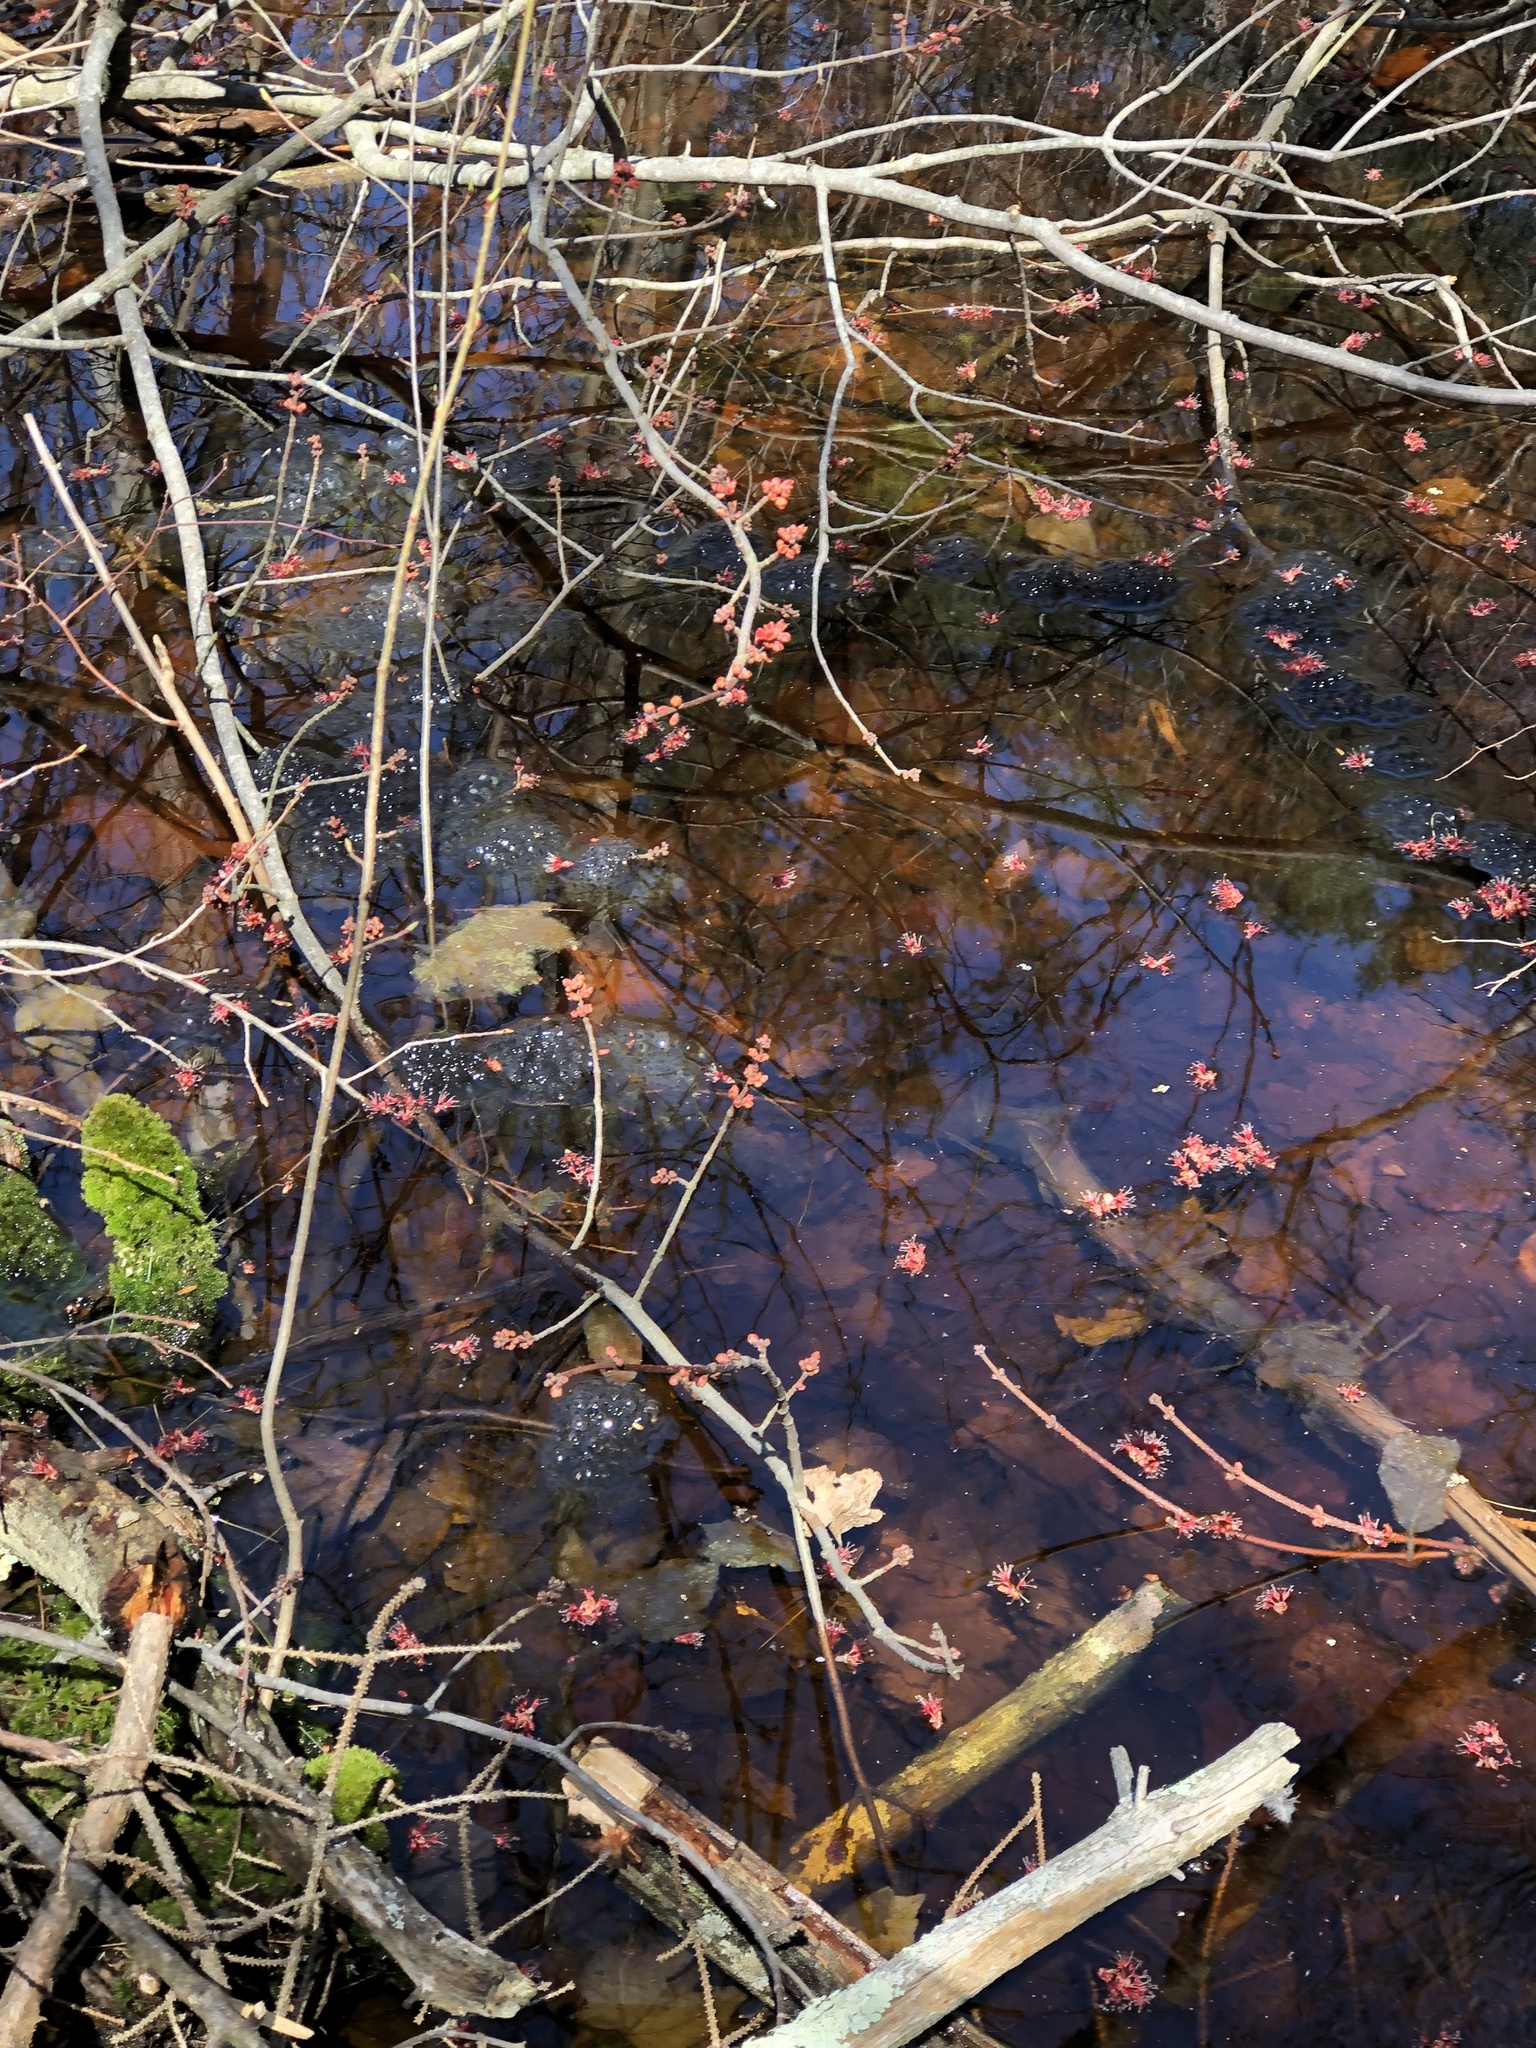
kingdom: Animalia
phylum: Chordata
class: Amphibia
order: Anura
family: Ranidae
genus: Lithobates
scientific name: Lithobates sylvaticus
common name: Wood frog
